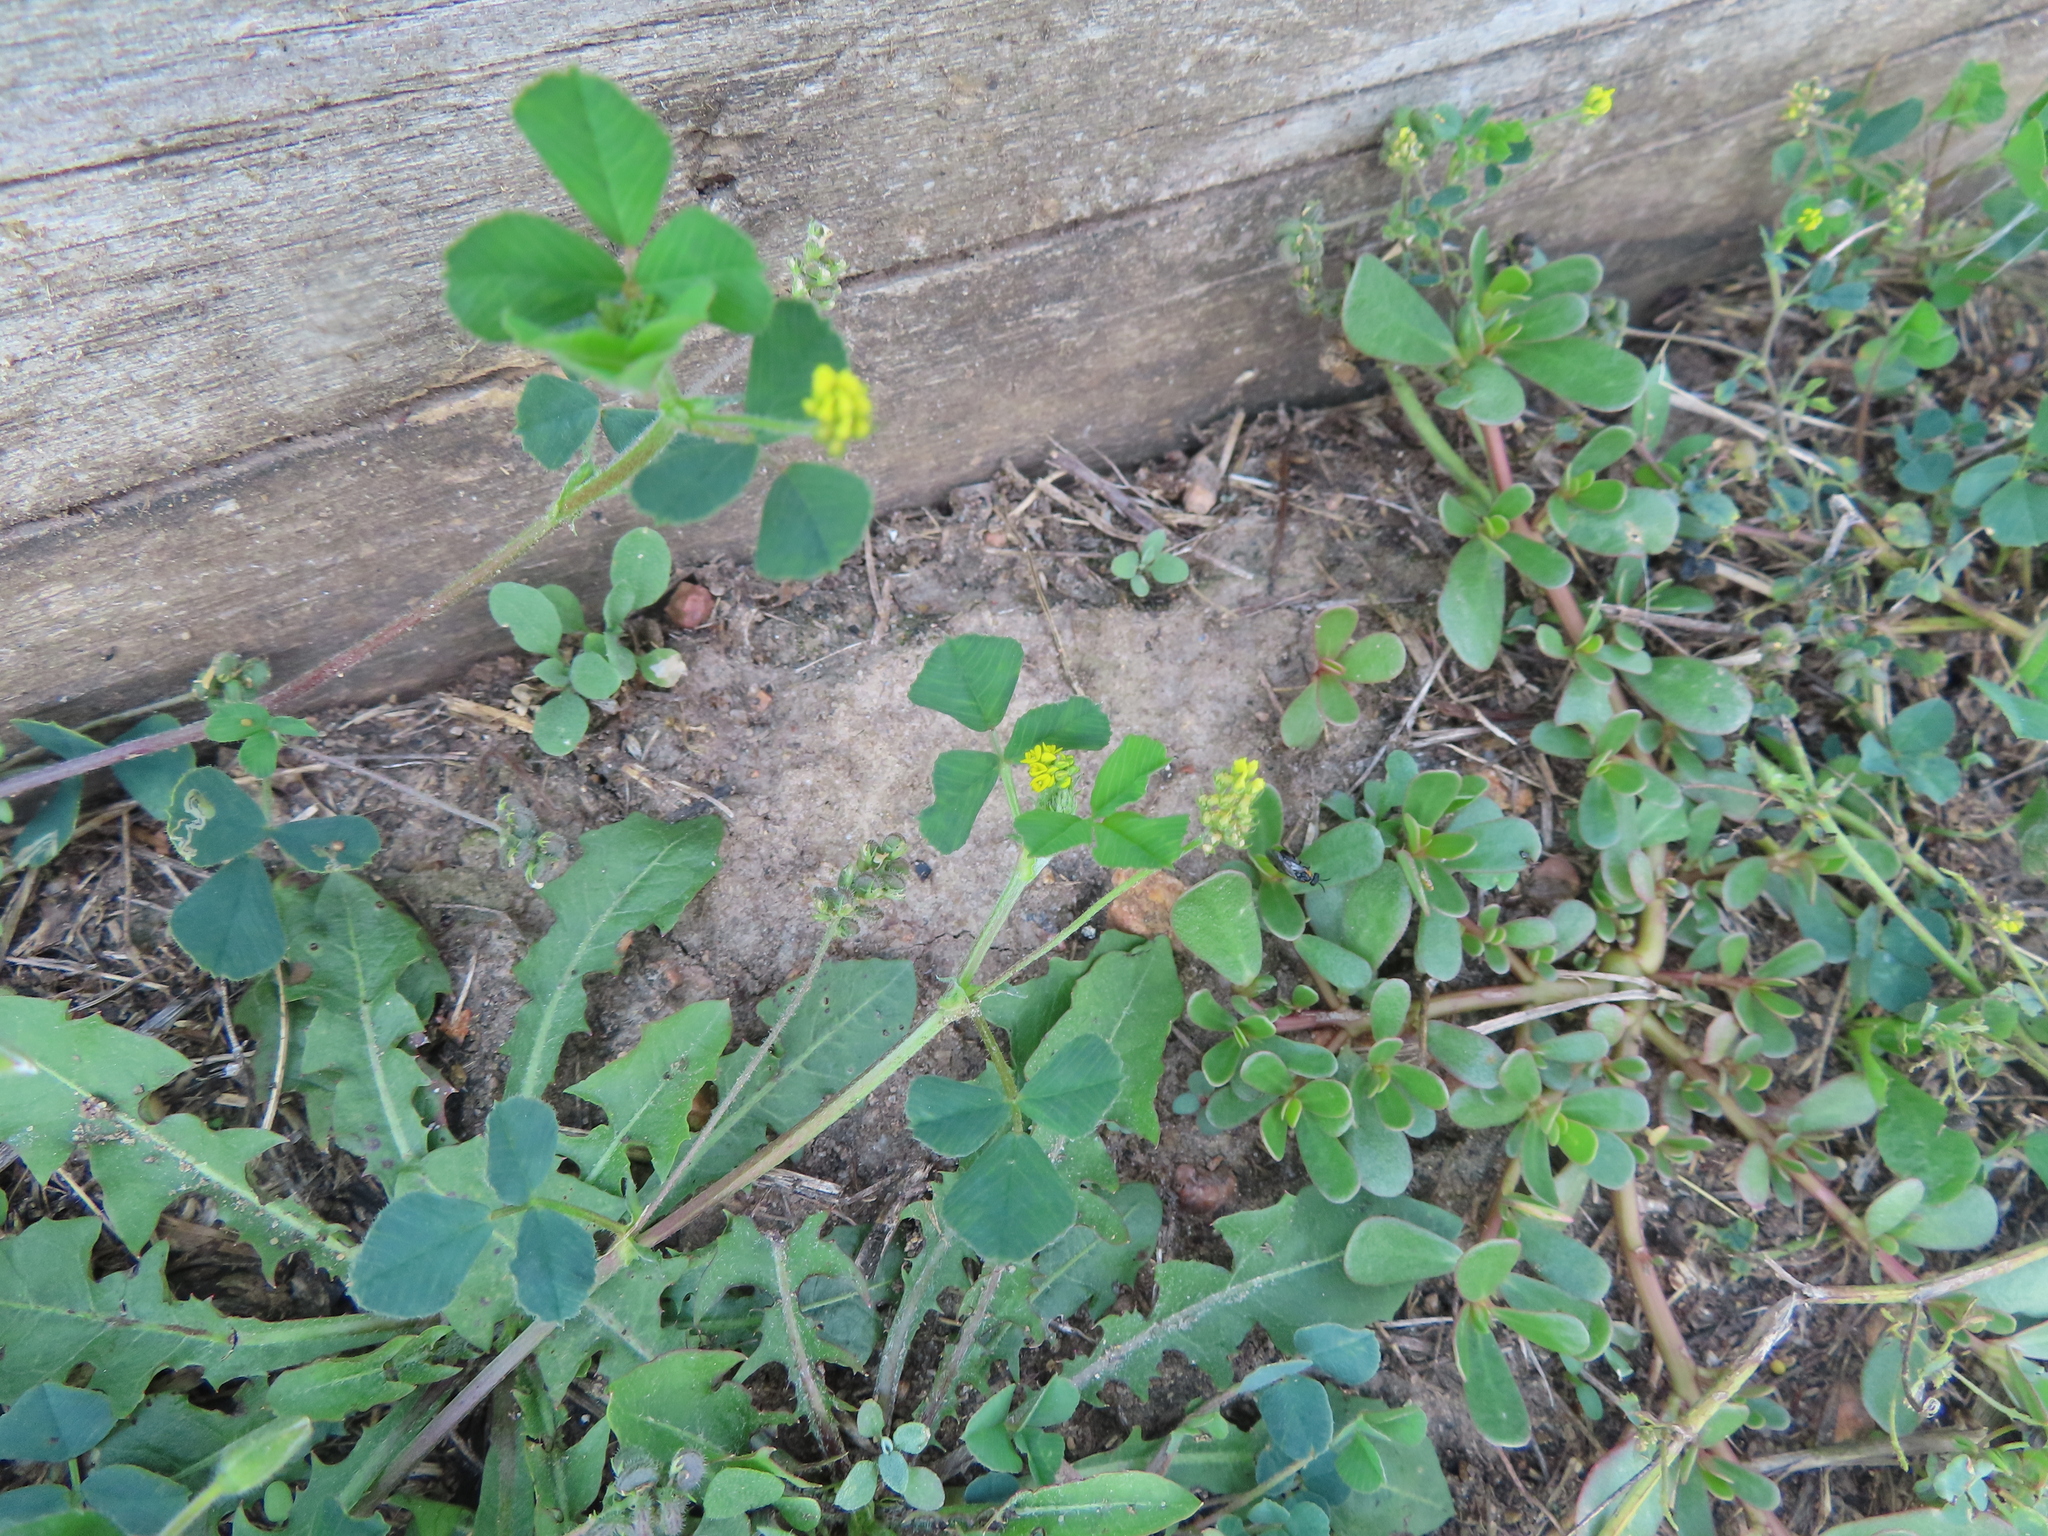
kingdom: Plantae
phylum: Tracheophyta
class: Magnoliopsida
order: Fabales
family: Fabaceae
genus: Medicago
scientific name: Medicago lupulina
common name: Black medick
